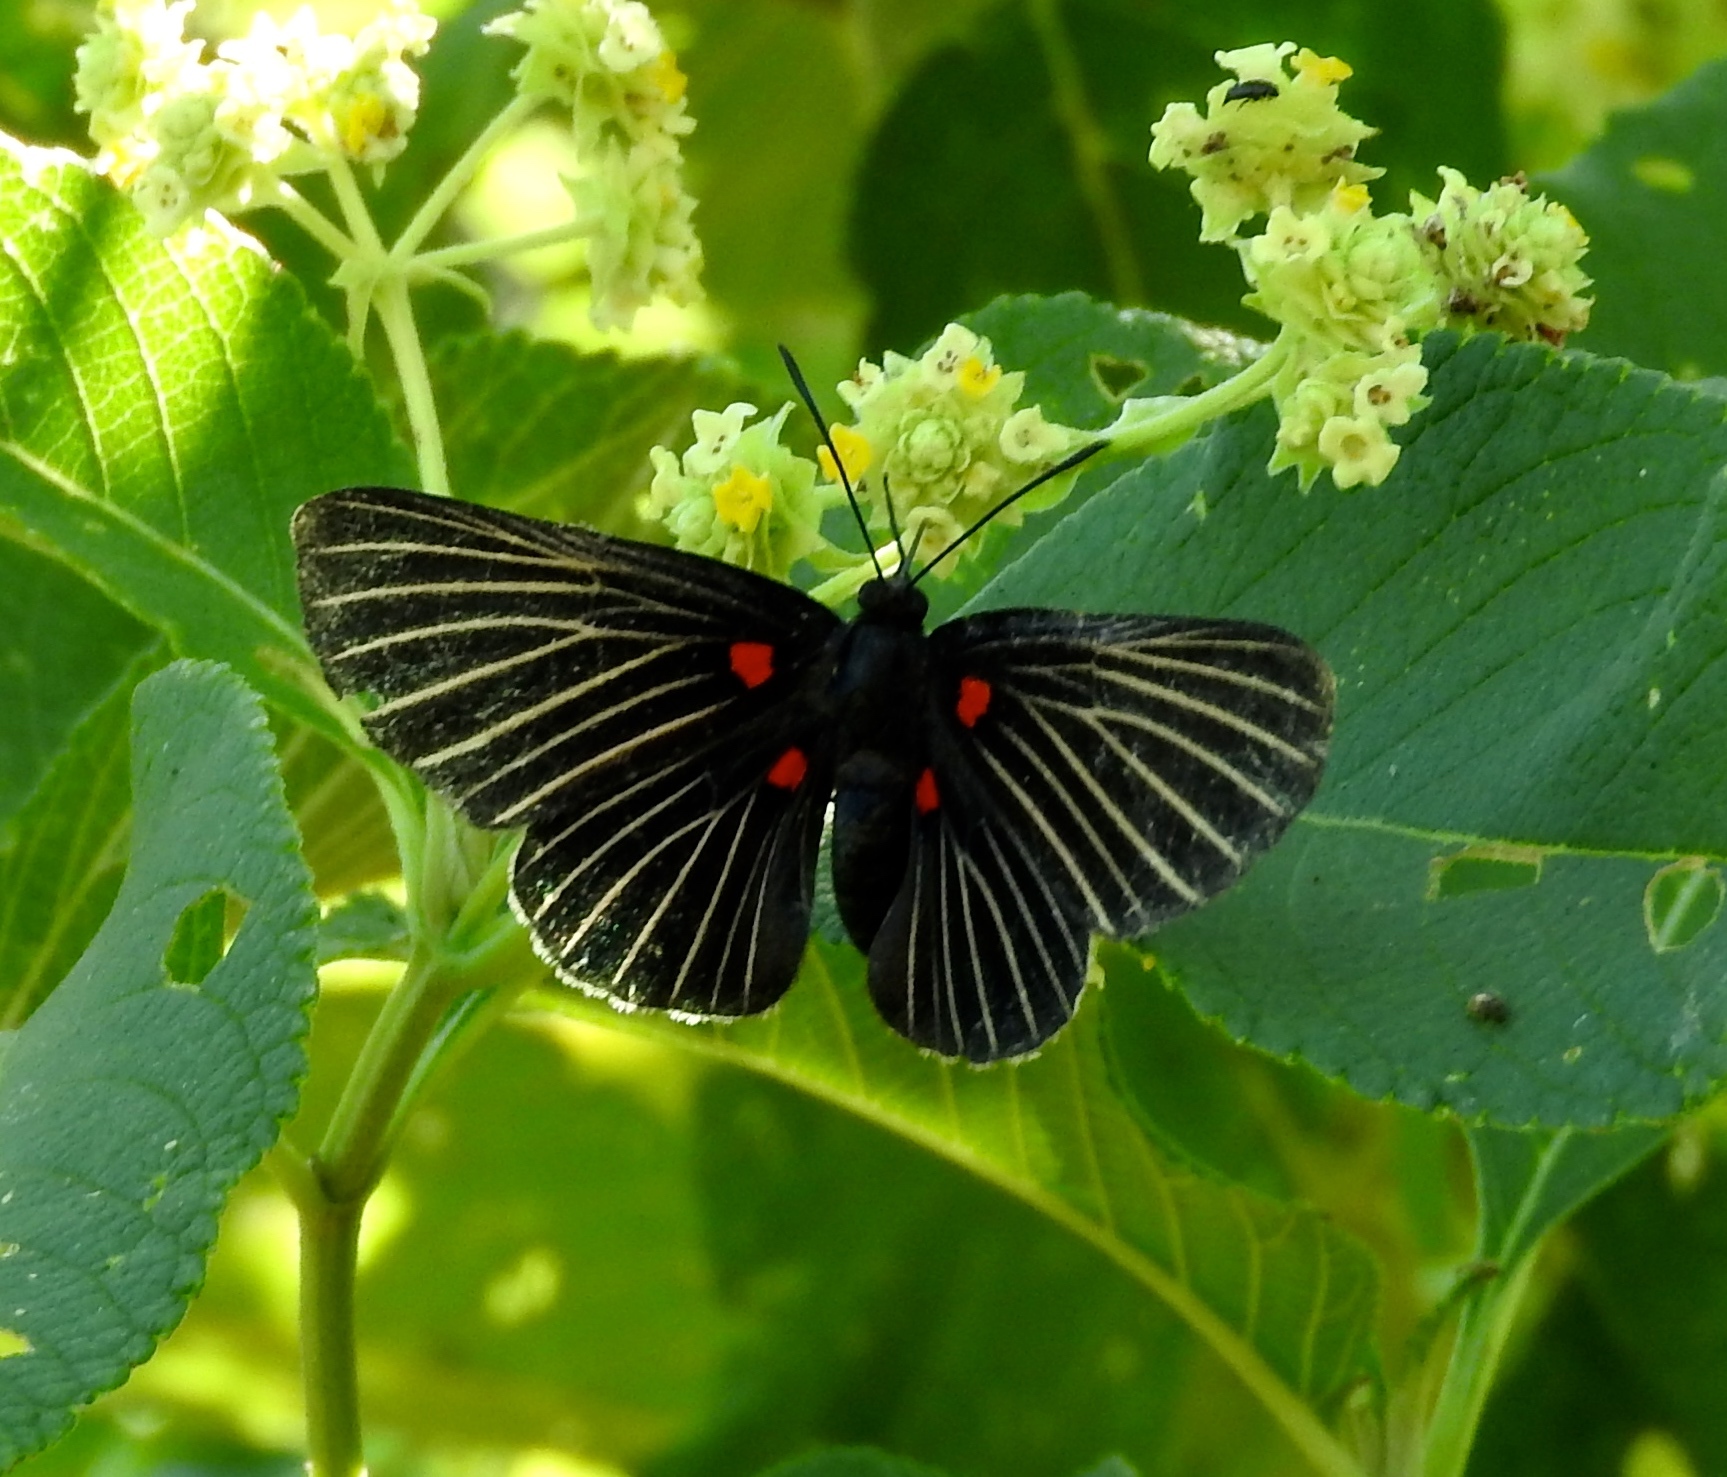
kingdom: Animalia
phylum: Arthropoda
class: Insecta
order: Lepidoptera
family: Lycaenidae
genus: Melanis
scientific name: Melanis
